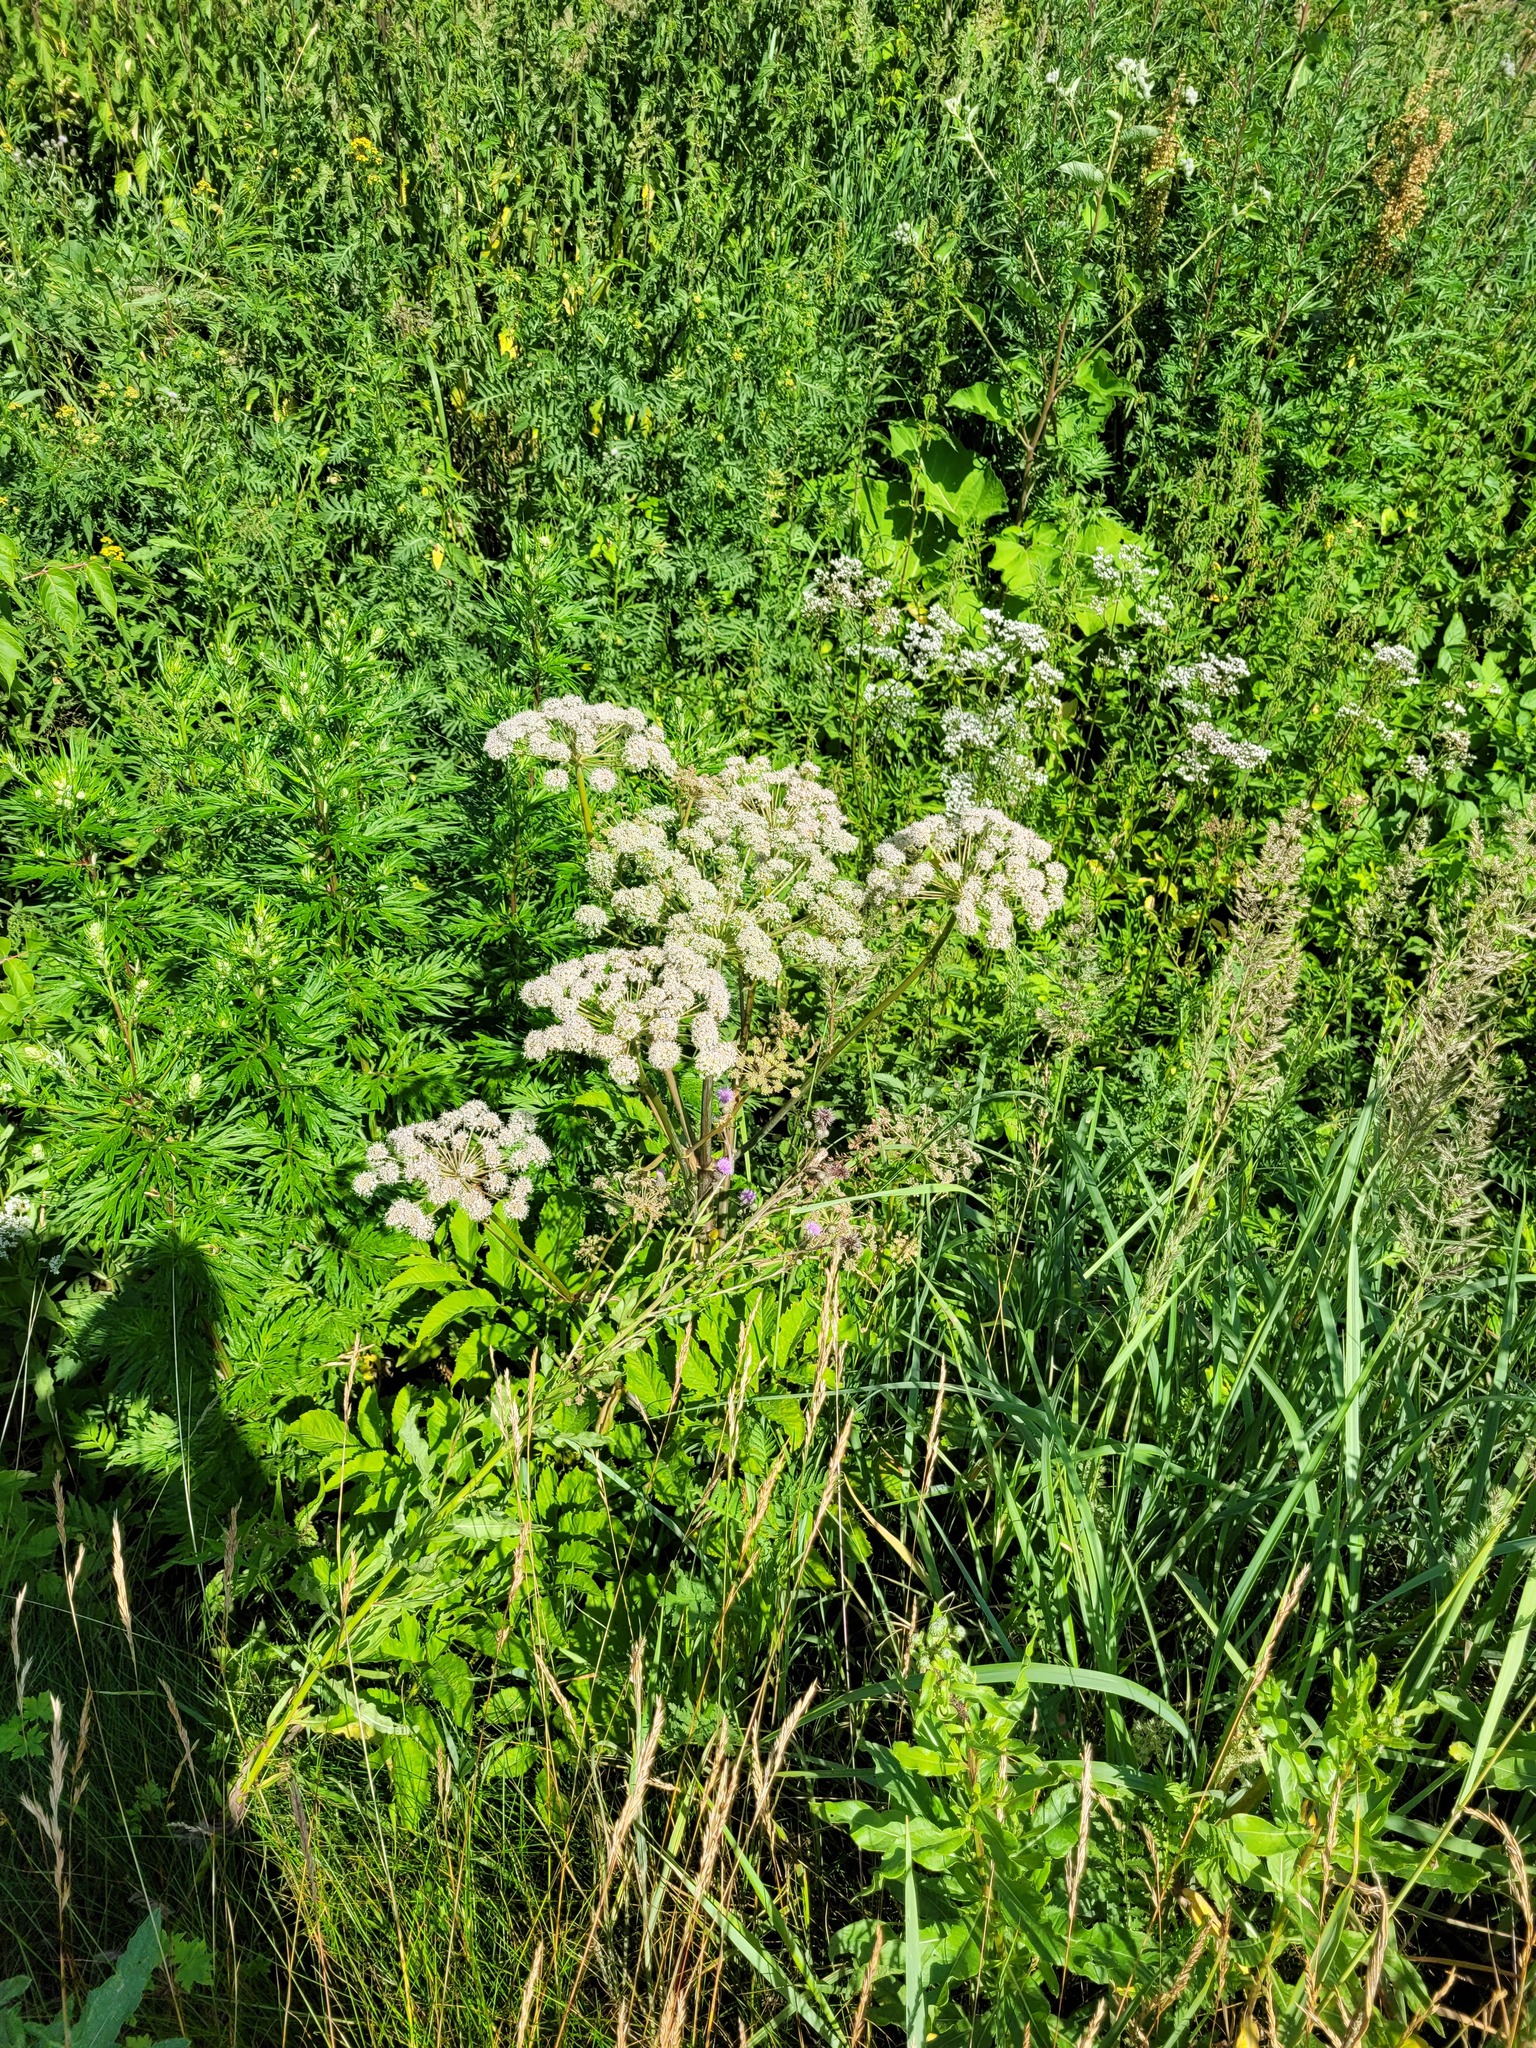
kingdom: Plantae
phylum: Tracheophyta
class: Magnoliopsida
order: Apiales
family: Apiaceae
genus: Angelica
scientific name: Angelica sylvestris
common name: Wild angelica
